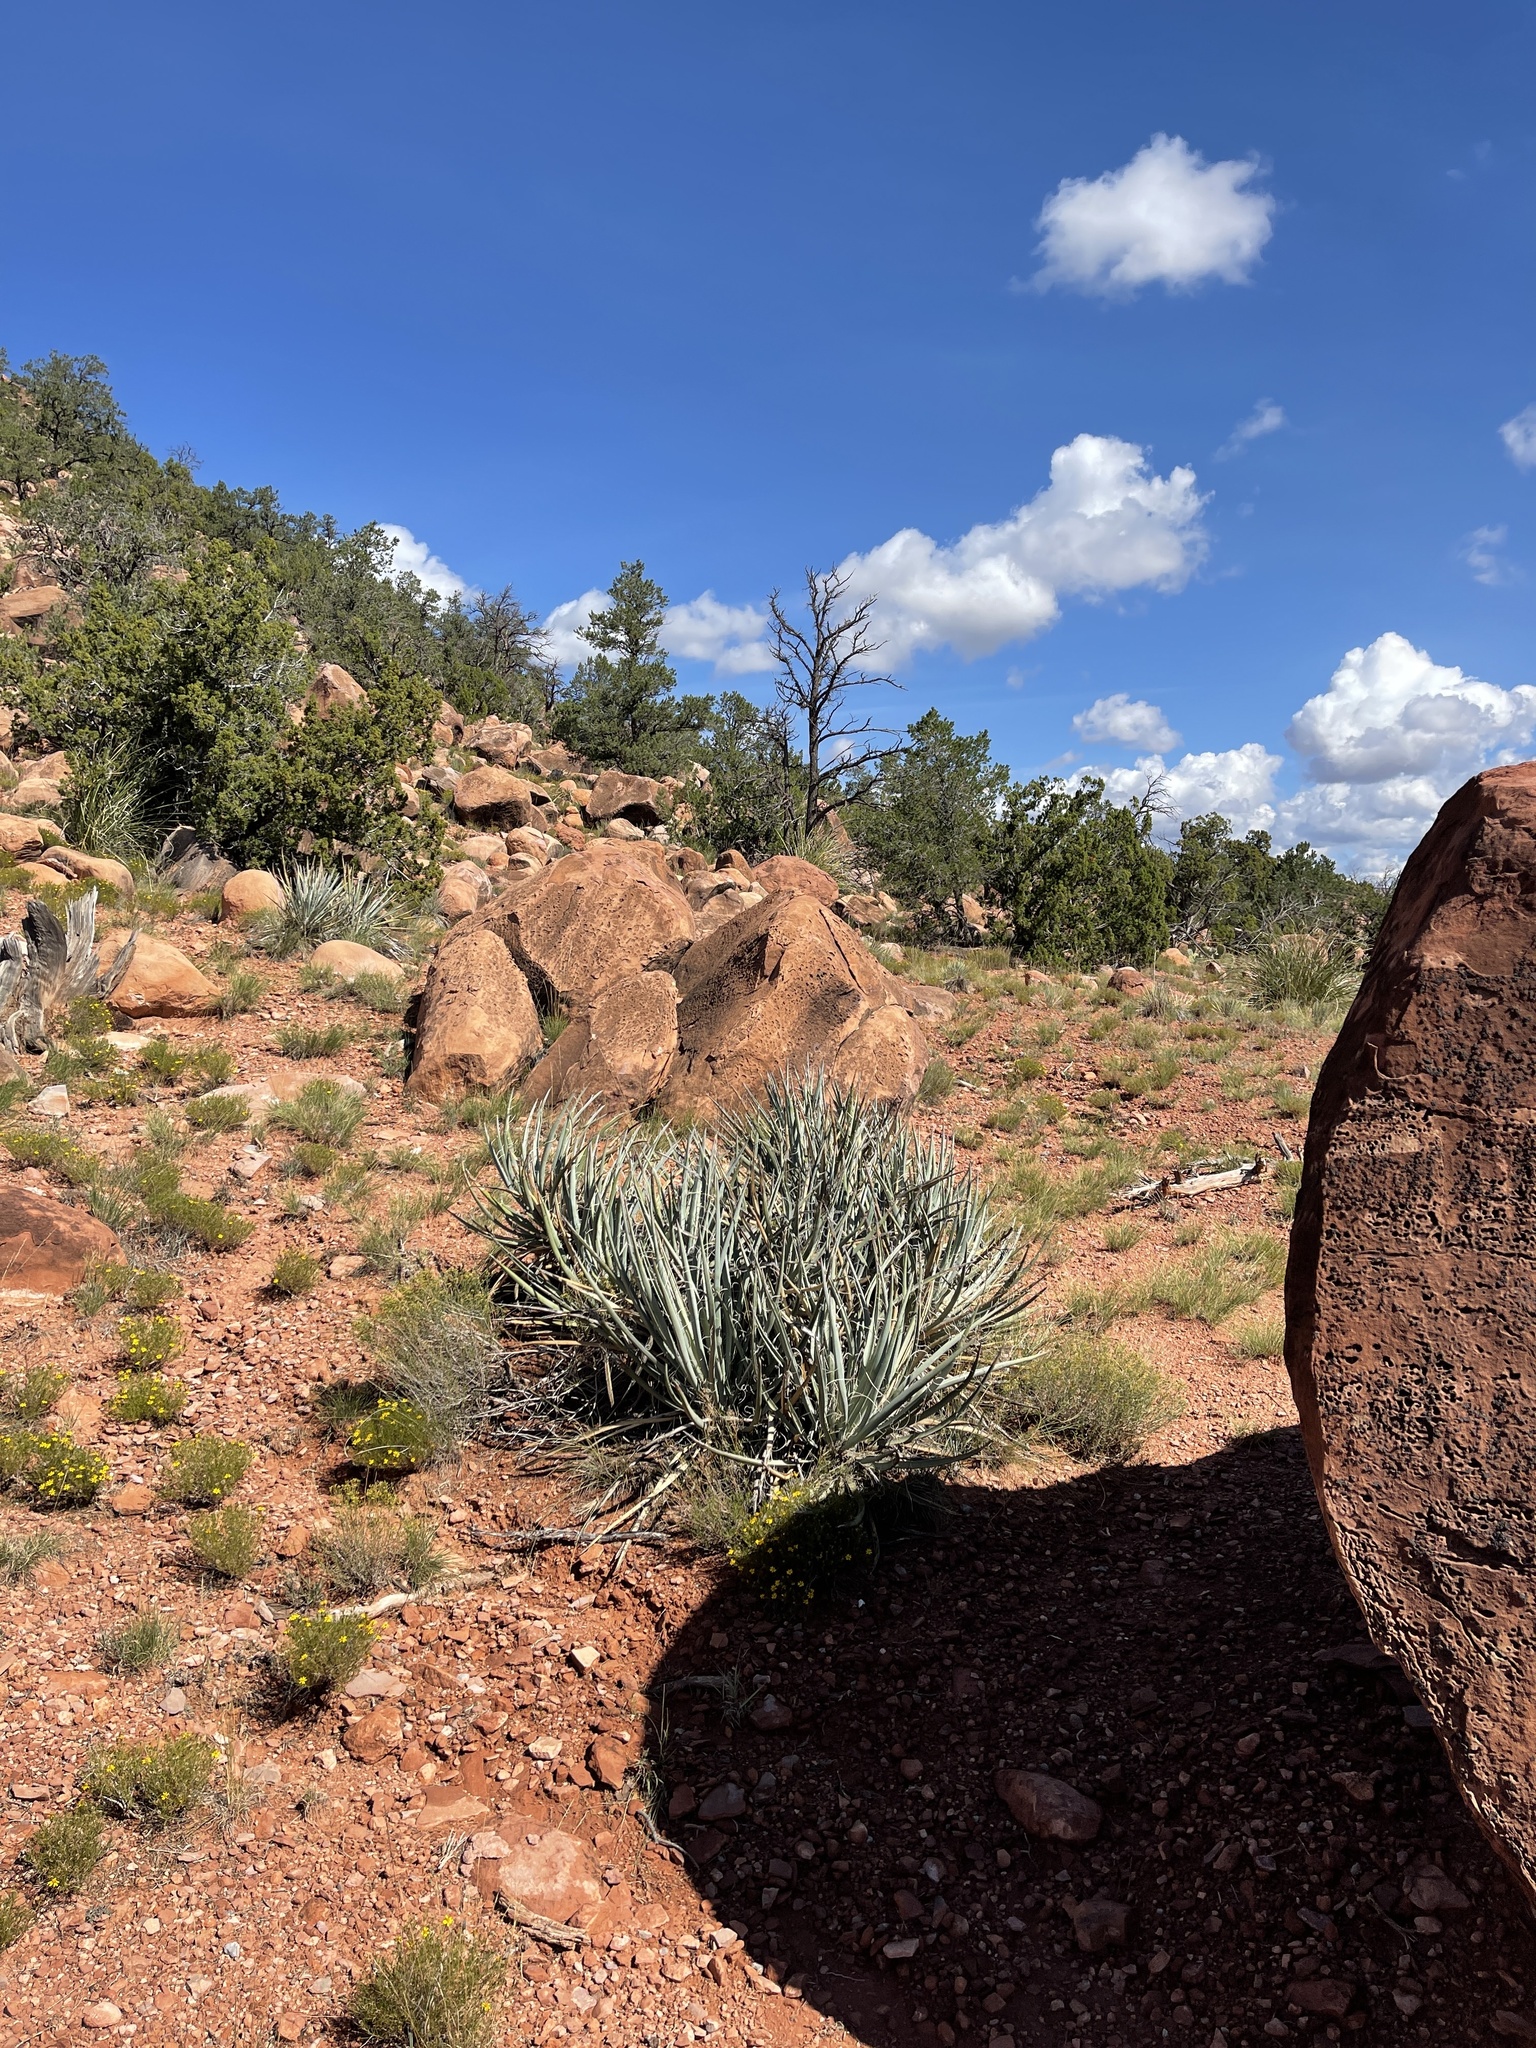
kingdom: Plantae
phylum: Tracheophyta
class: Liliopsida
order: Asparagales
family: Asparagaceae
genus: Yucca
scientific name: Yucca baccata
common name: Banana yucca
